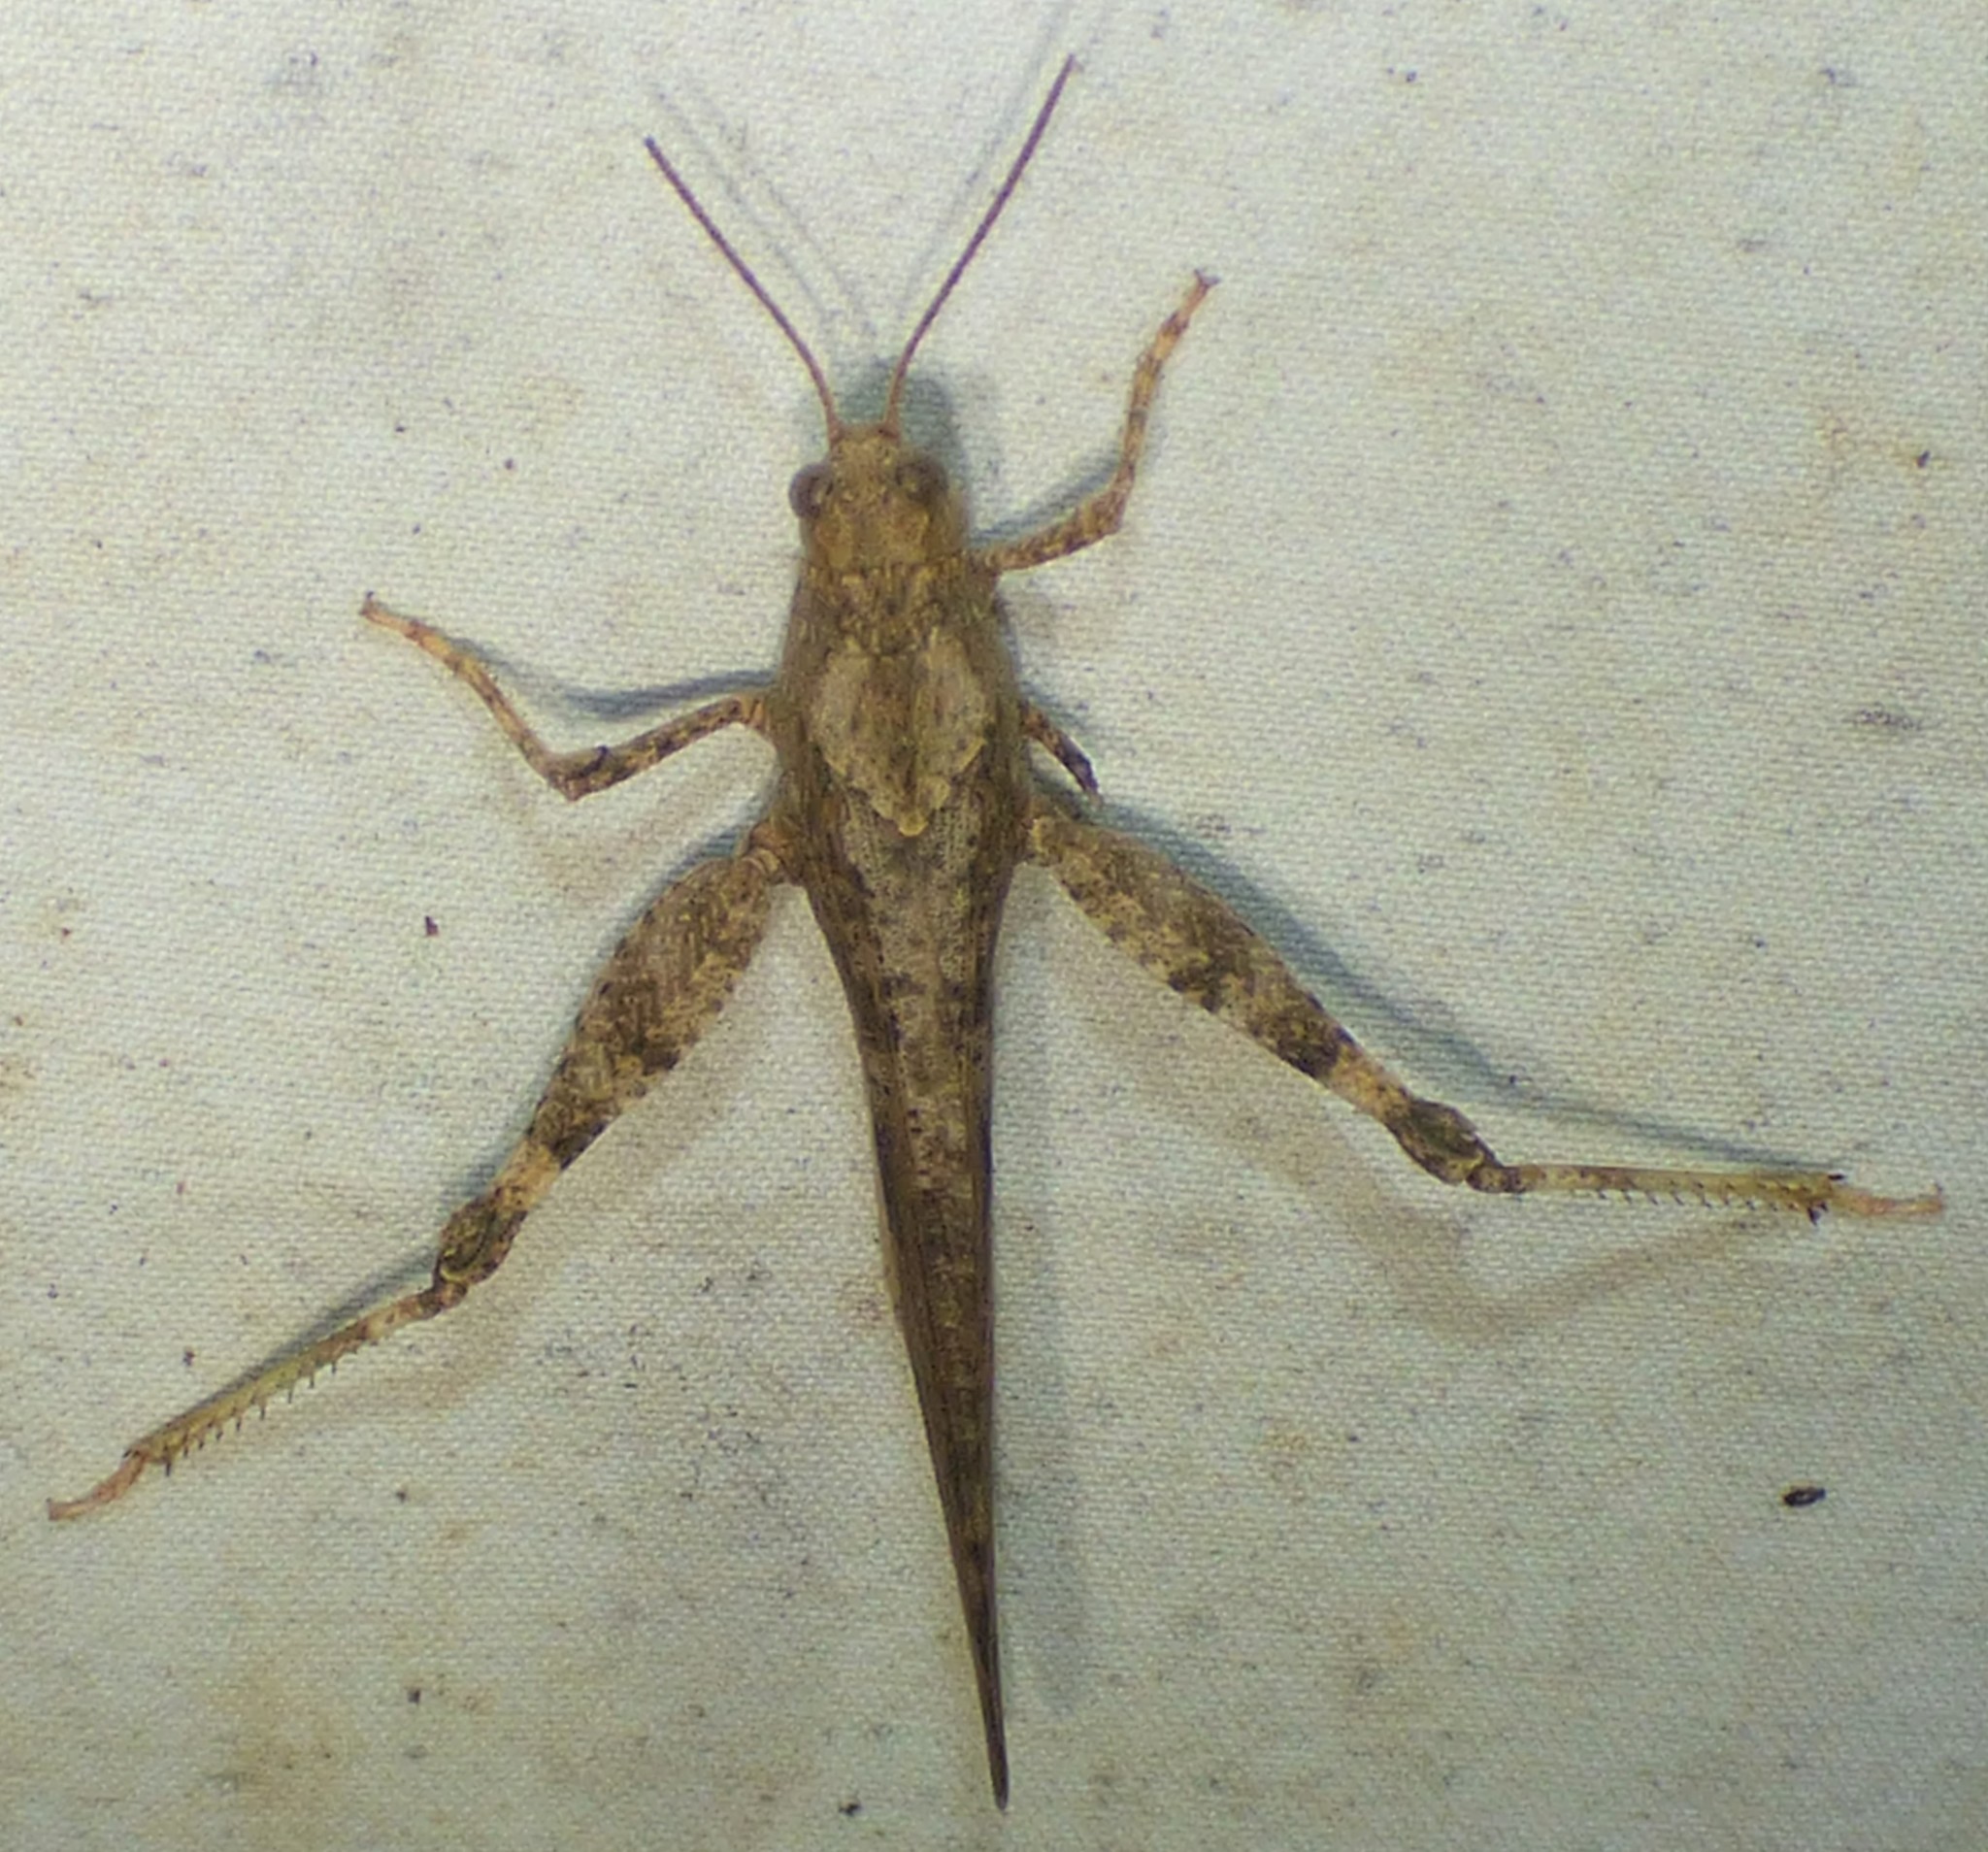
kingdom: Animalia
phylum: Arthropoda
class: Insecta
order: Orthoptera
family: Acrididae
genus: Dissosteira
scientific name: Dissosteira carolina
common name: Carolina grasshopper
